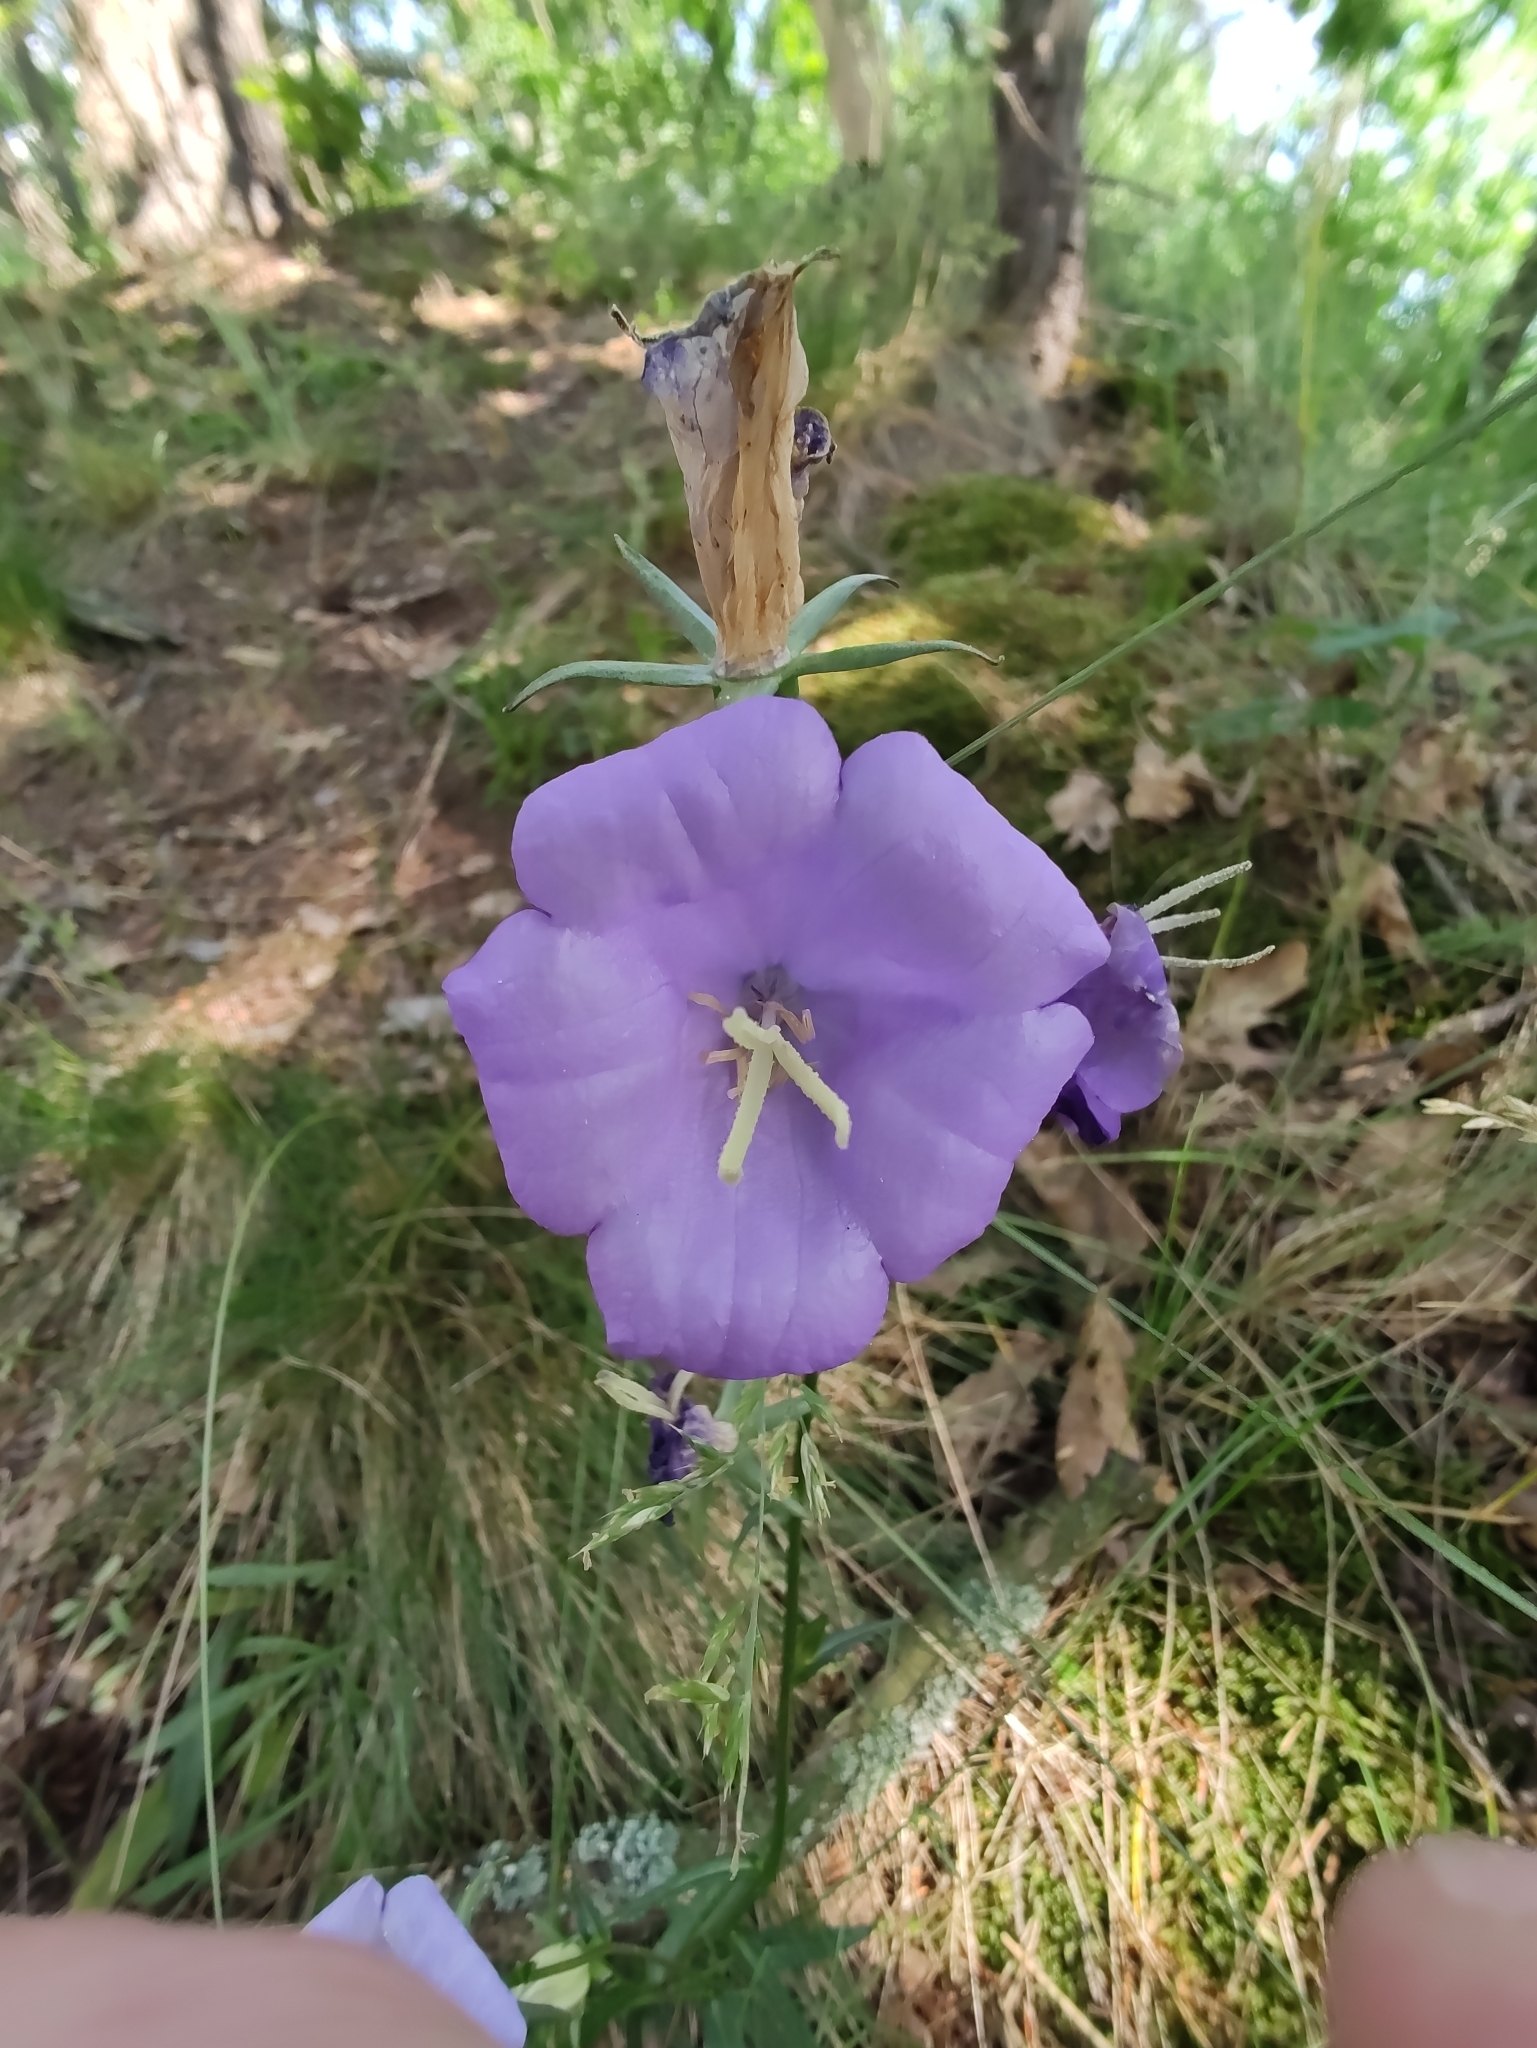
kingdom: Plantae
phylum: Tracheophyta
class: Magnoliopsida
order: Asterales
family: Campanulaceae
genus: Campanula
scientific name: Campanula persicifolia
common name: Peach-leaved bellflower
